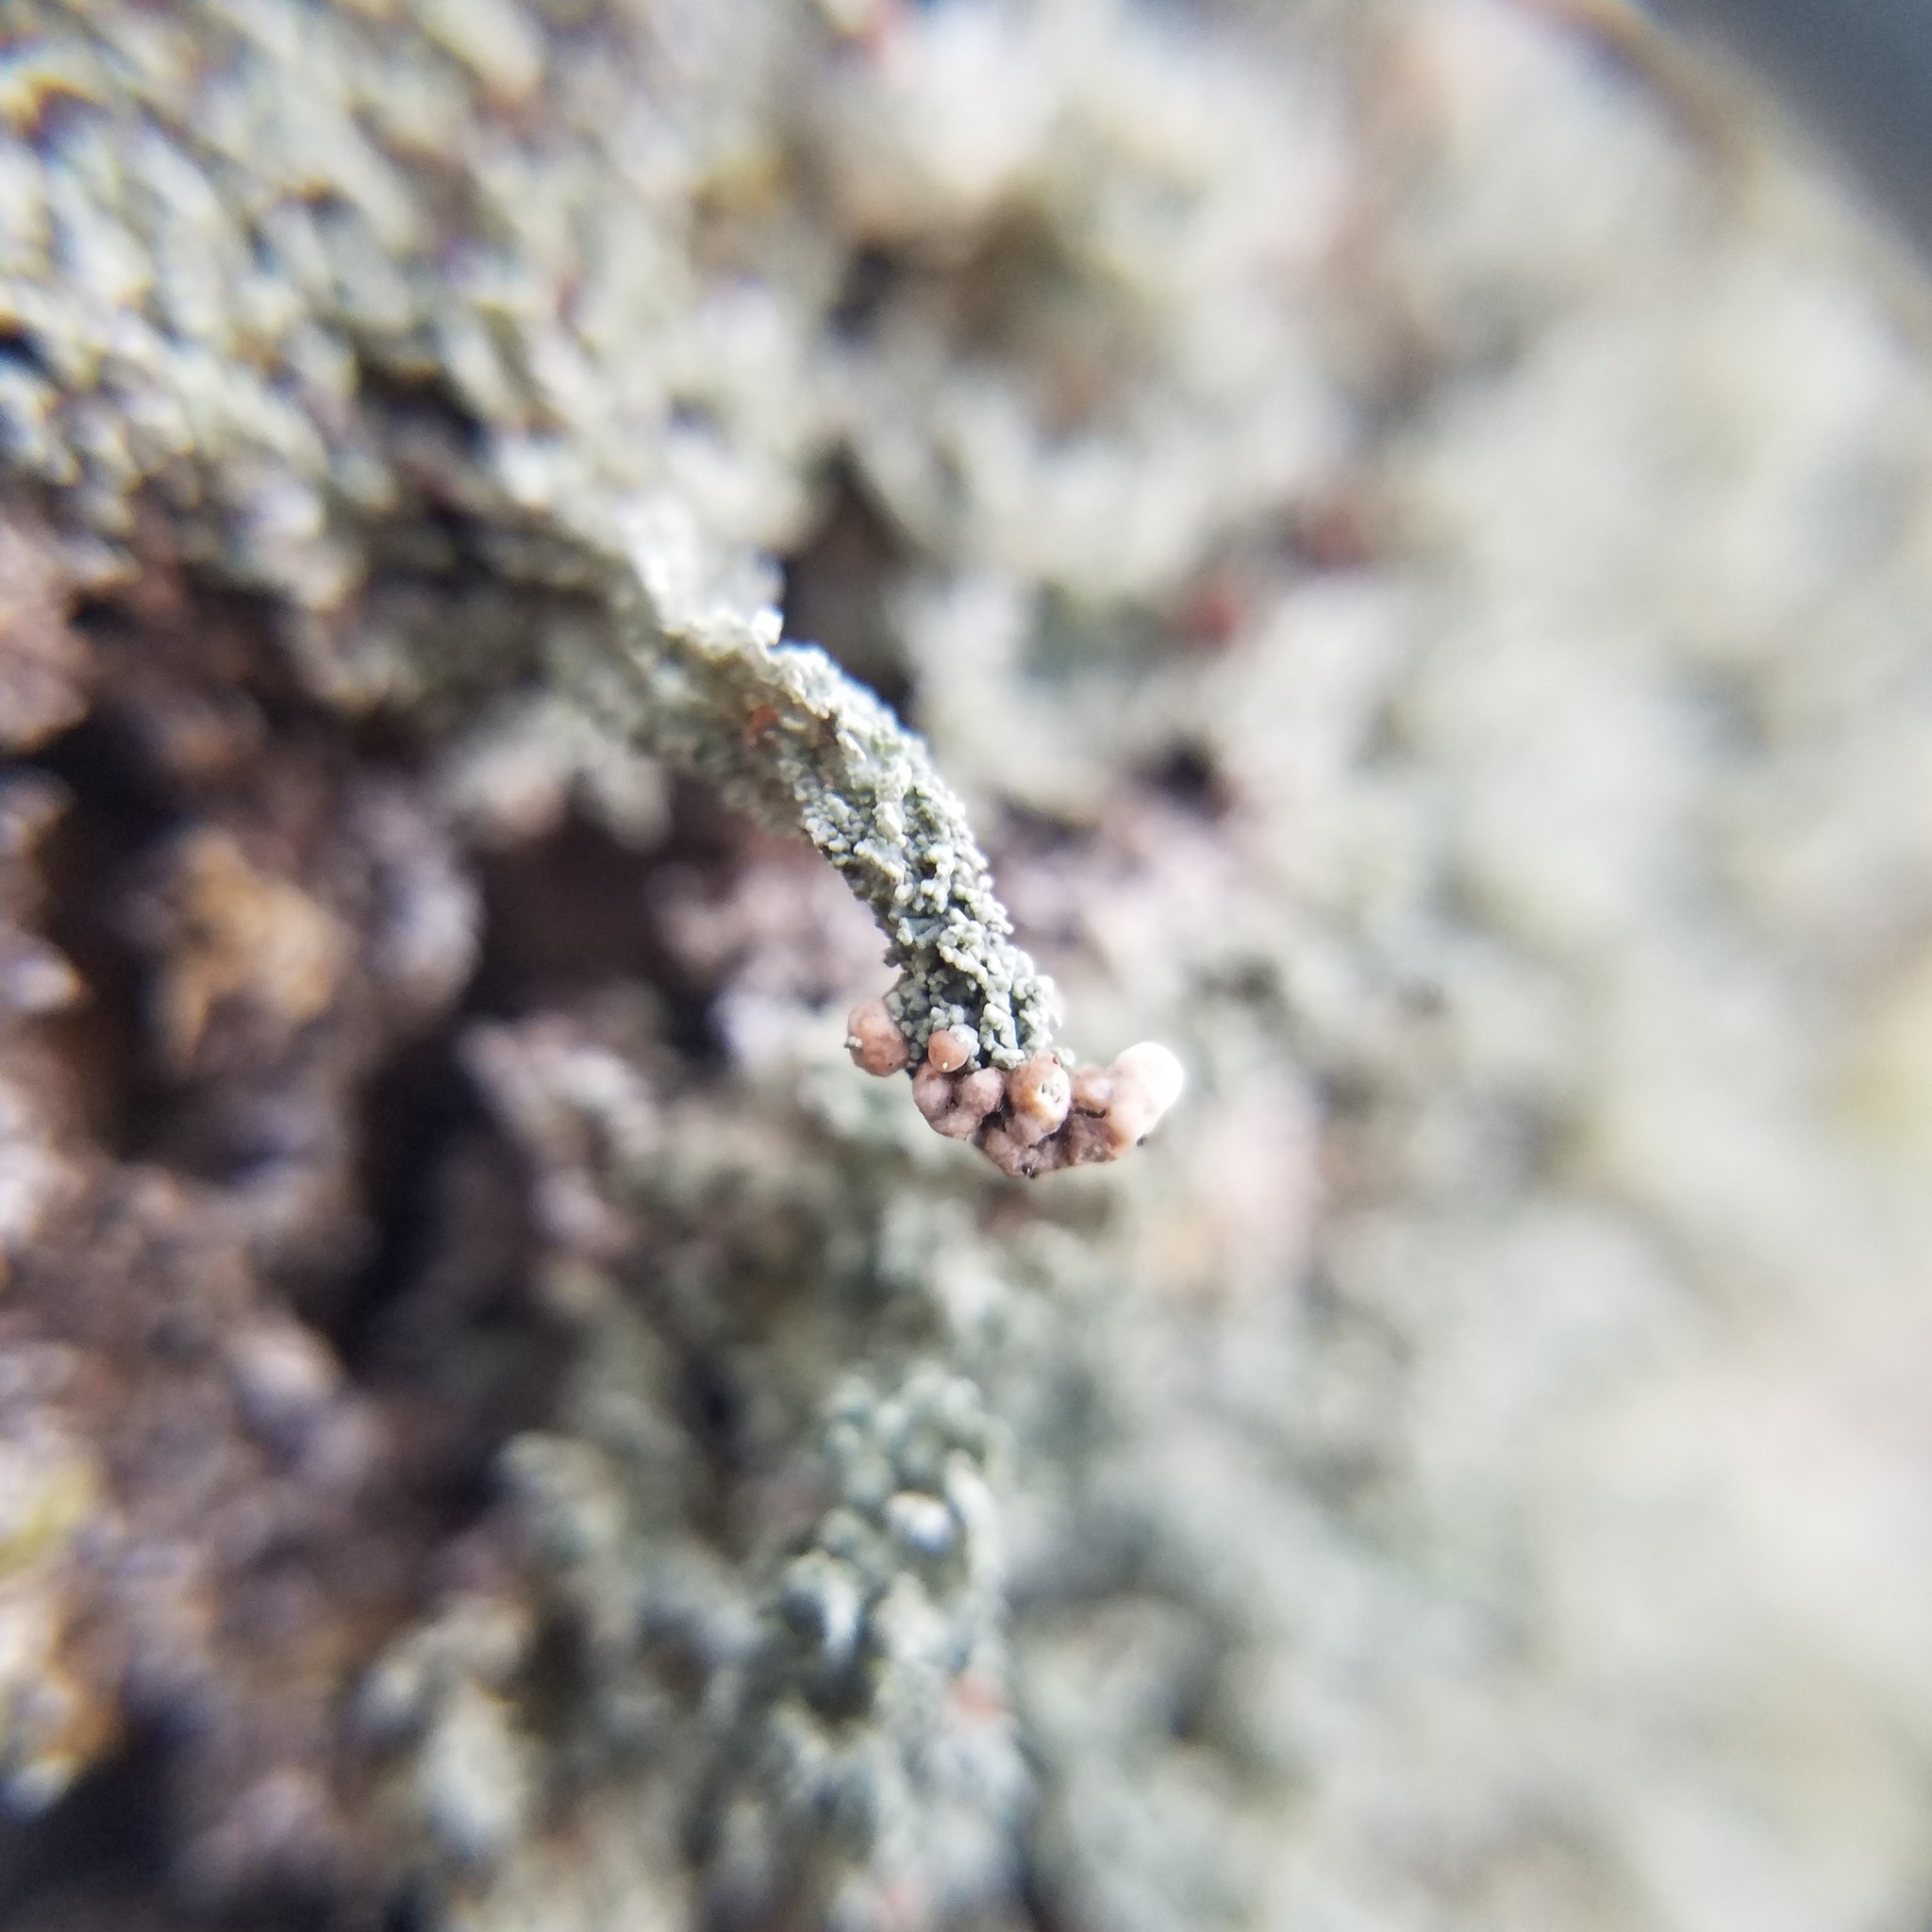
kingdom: Fungi
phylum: Ascomycota
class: Lecanoromycetes
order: Lecanorales
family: Cladoniaceae
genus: Cladonia
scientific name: Cladonia peziziformis
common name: Cup lichen
